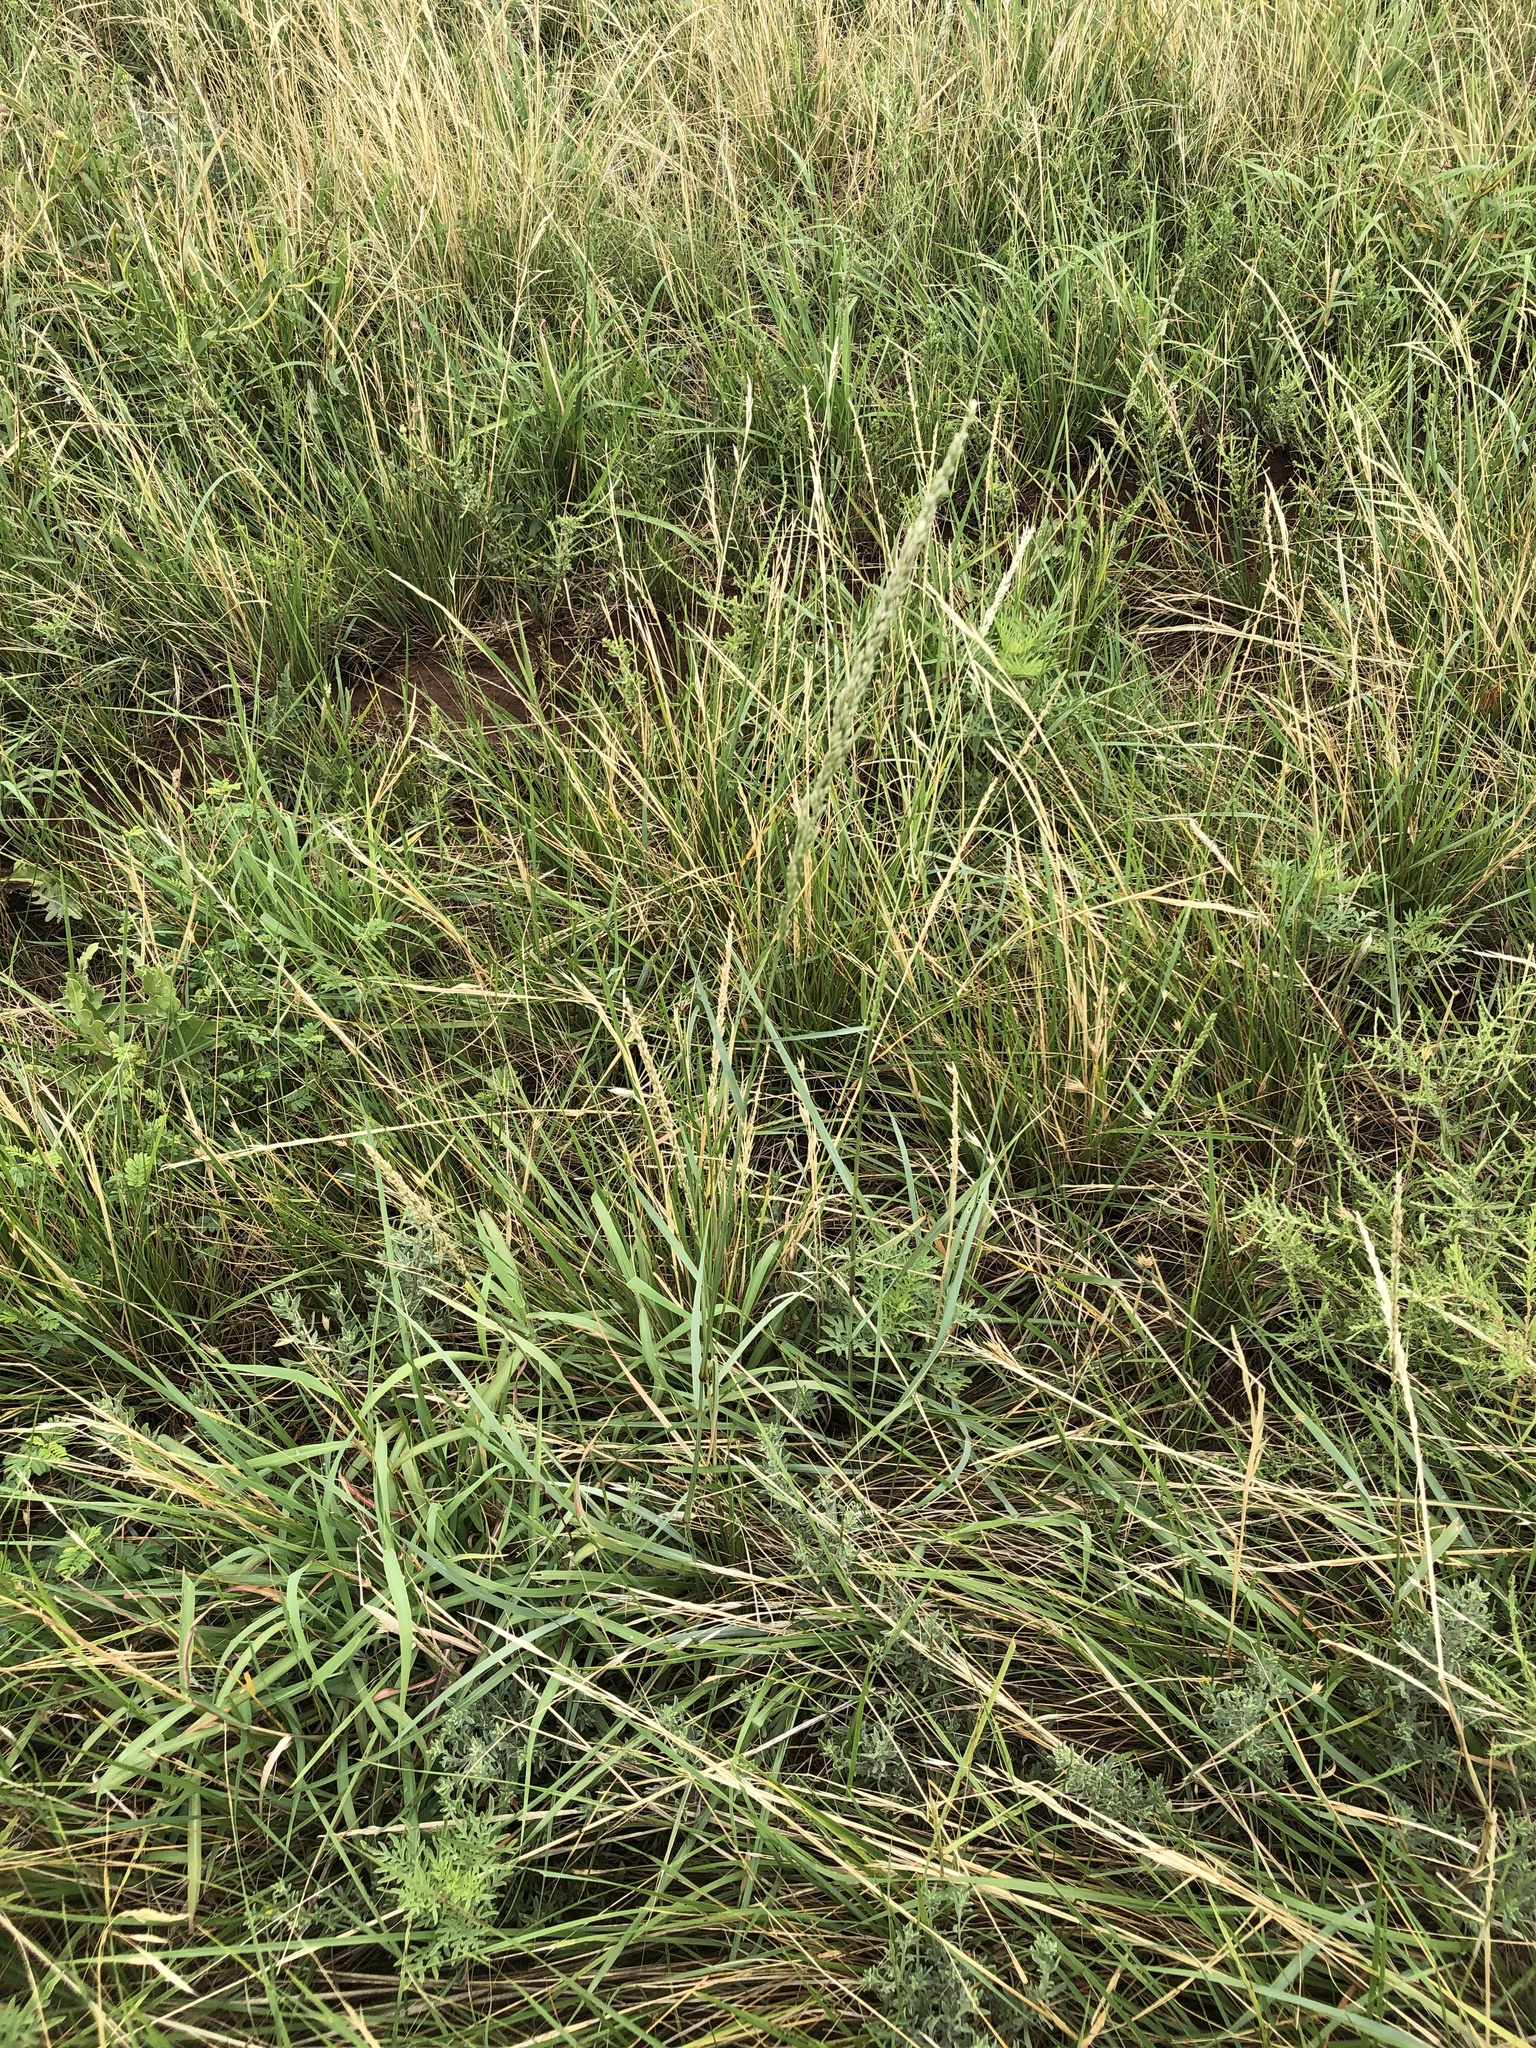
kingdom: Plantae
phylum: Tracheophyta
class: Liliopsida
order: Poales
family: Poaceae
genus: Tridens
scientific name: Tridens albescens
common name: White tridens
